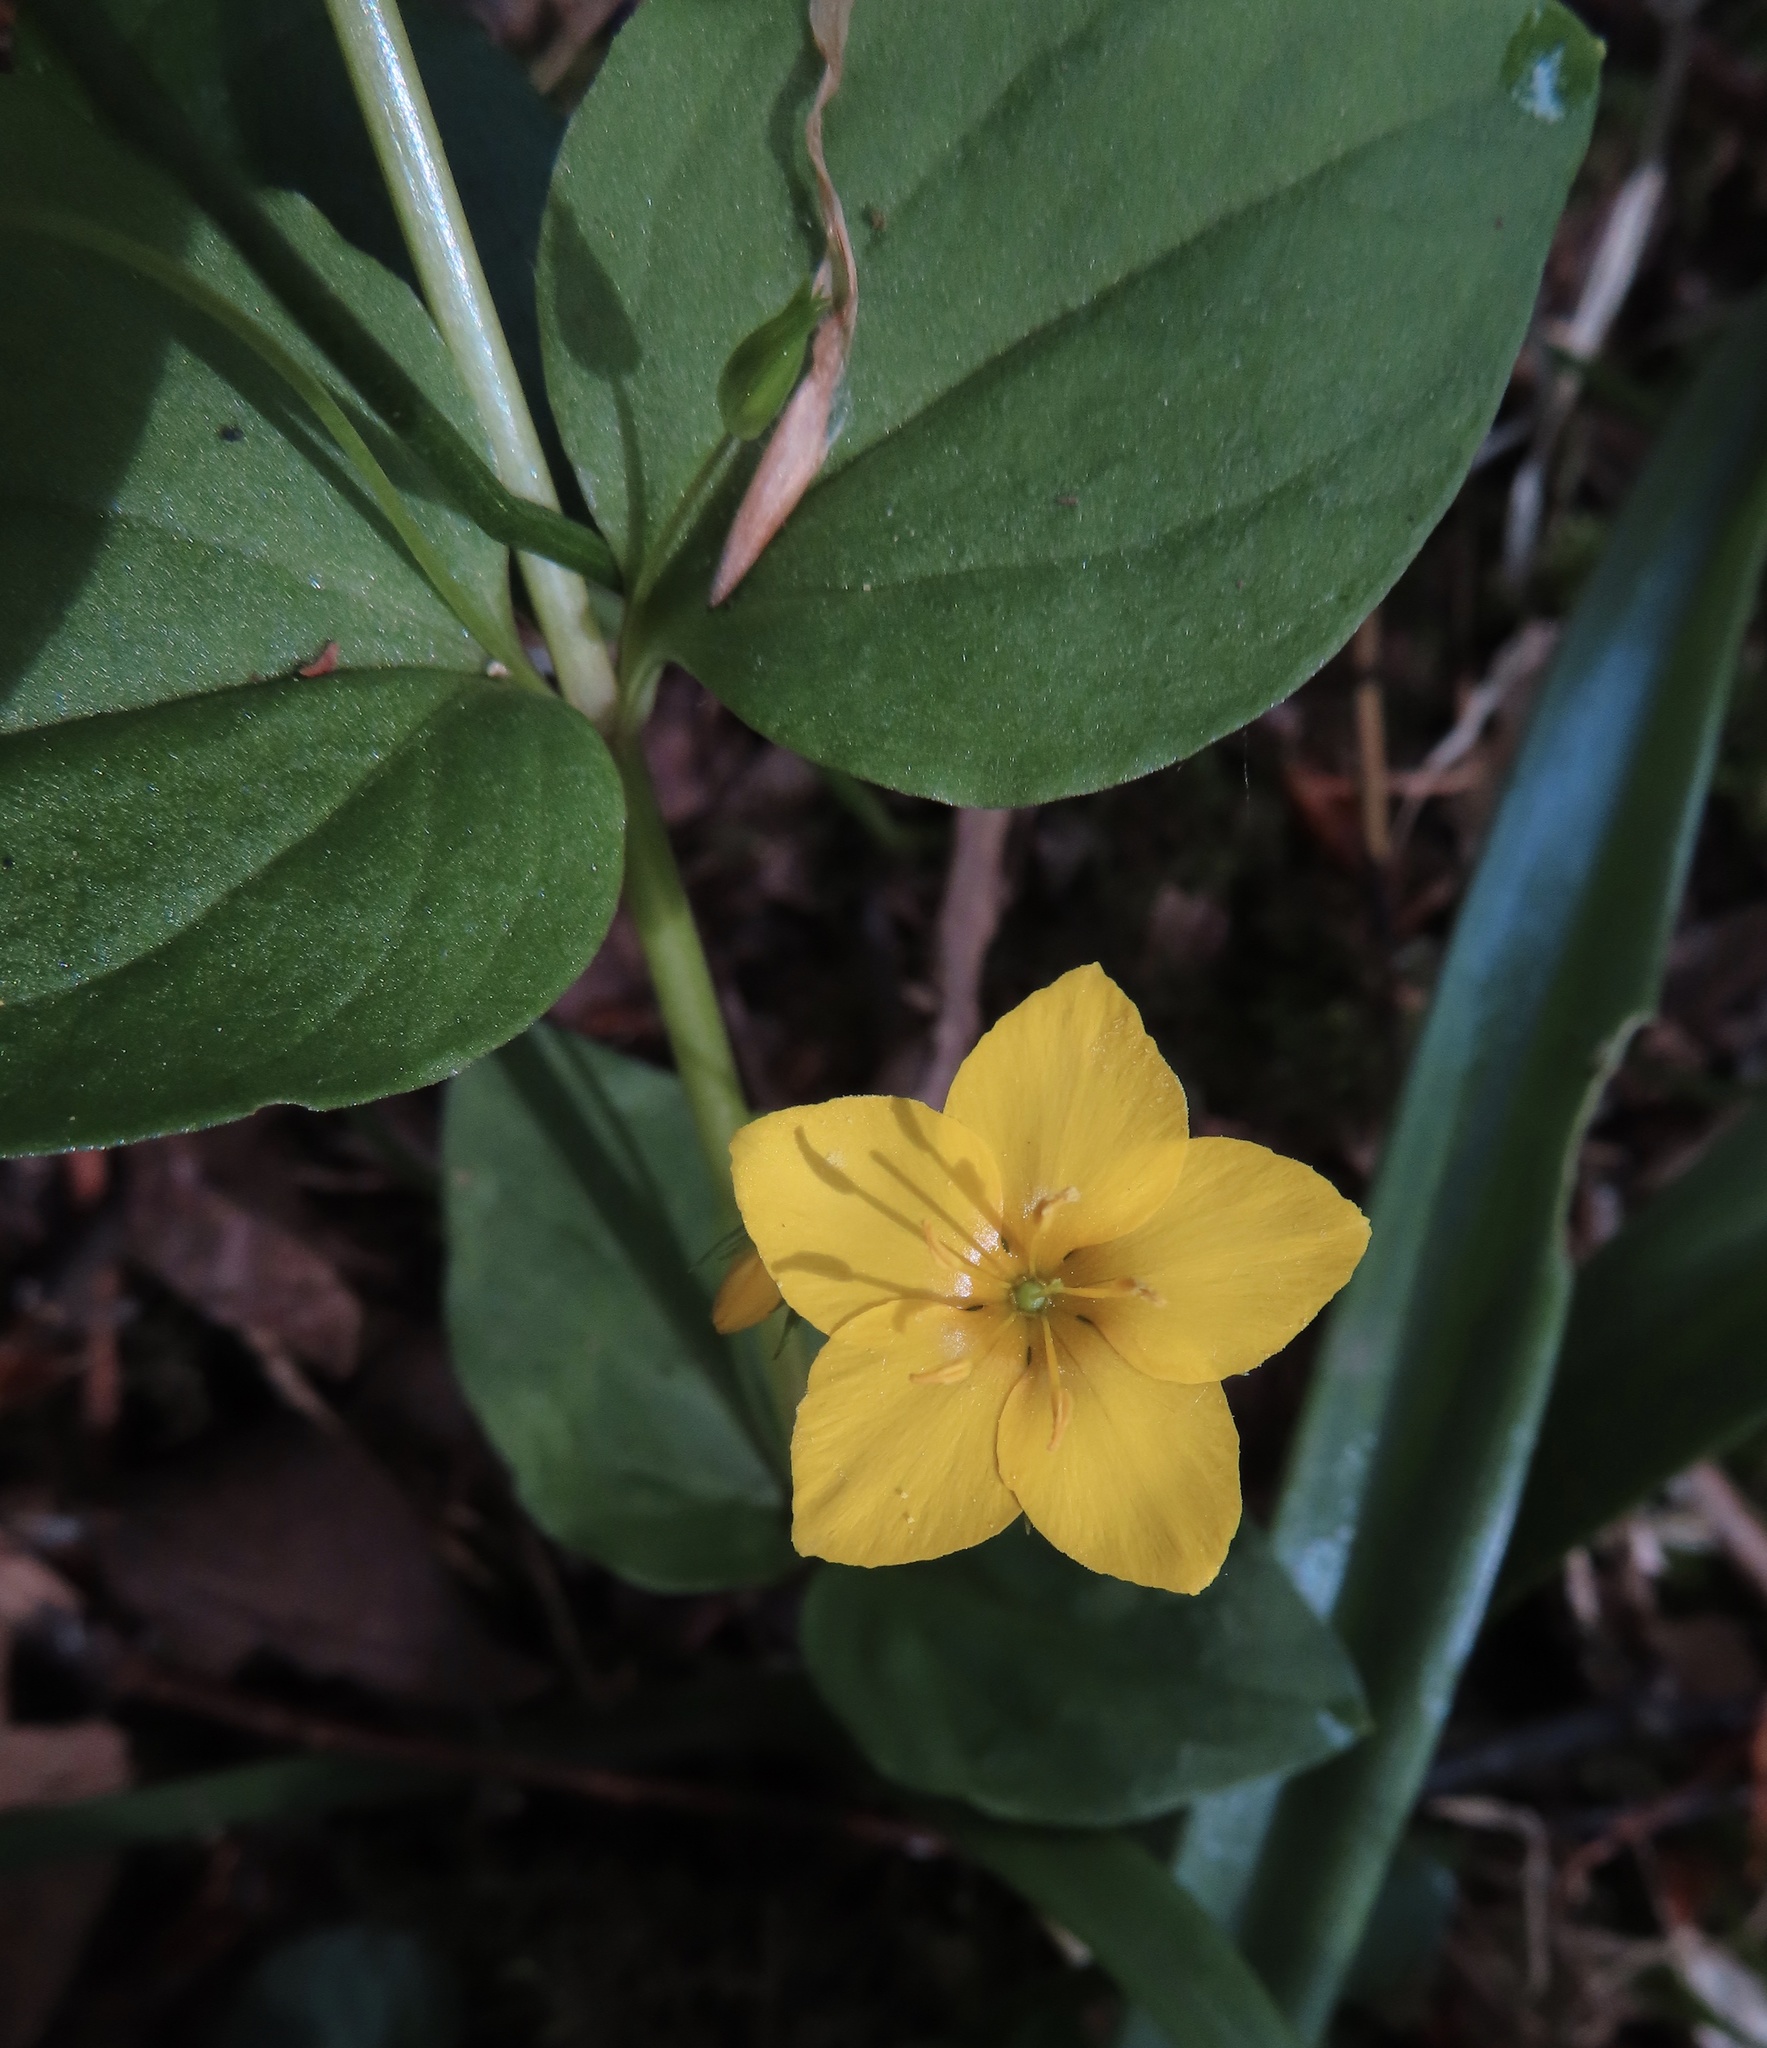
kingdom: Plantae
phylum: Tracheophyta
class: Magnoliopsida
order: Ericales
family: Primulaceae
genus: Lysimachia
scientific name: Lysimachia nemorum
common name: Yellow pimpernel
